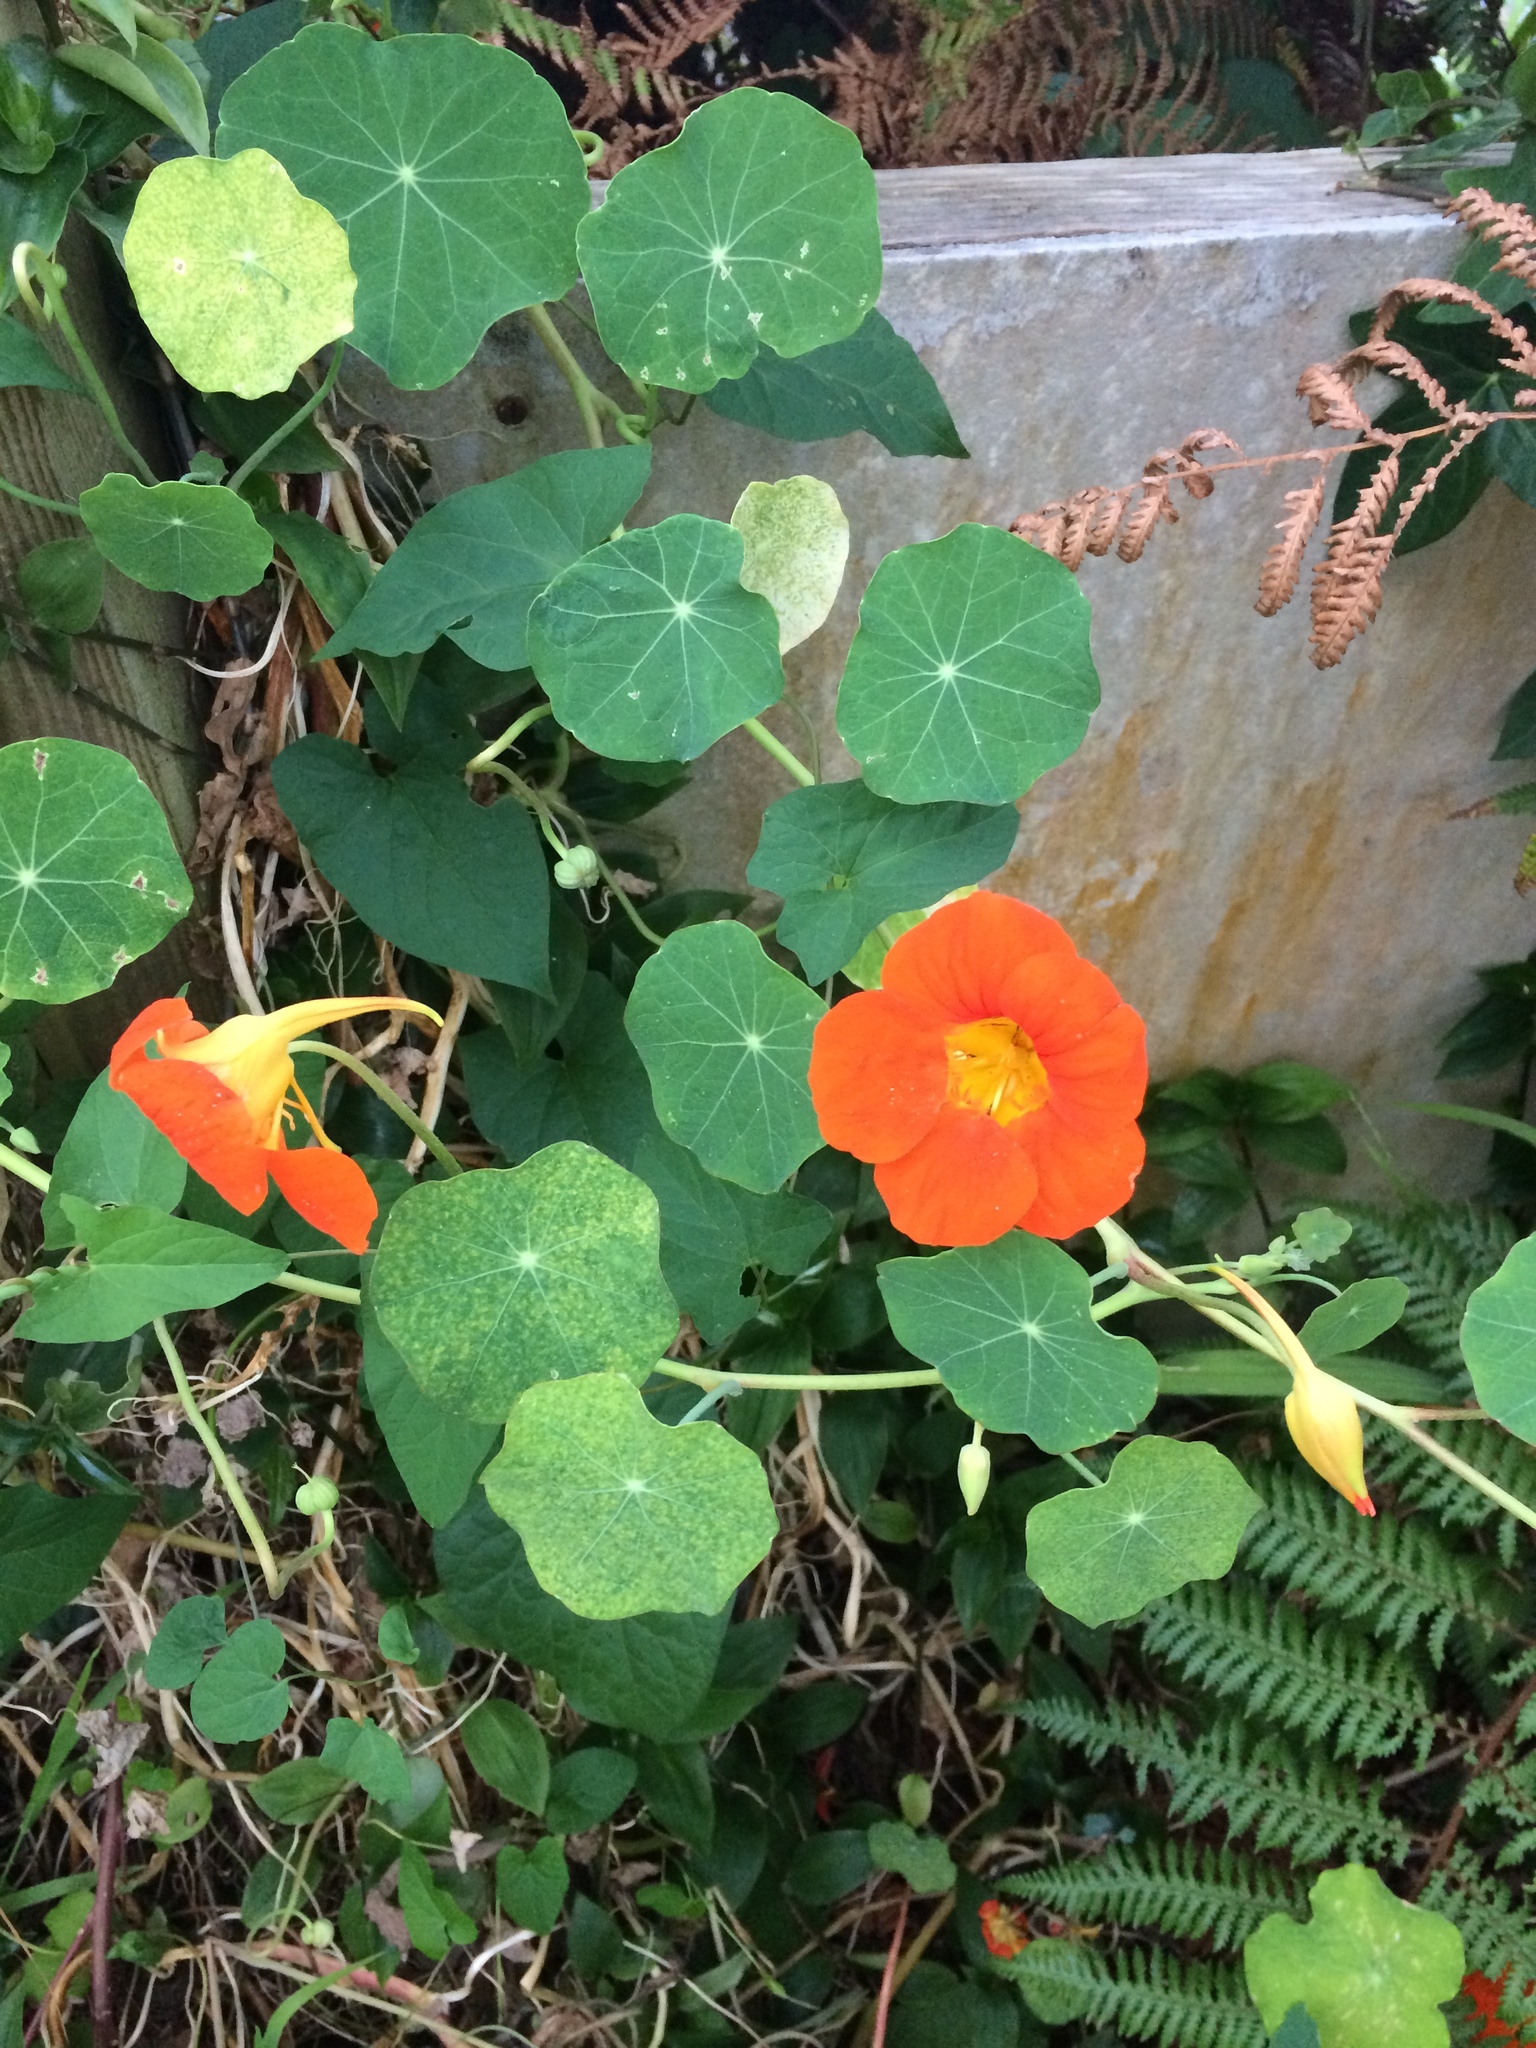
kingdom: Plantae
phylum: Tracheophyta
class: Magnoliopsida
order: Brassicales
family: Tropaeolaceae
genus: Tropaeolum
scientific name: Tropaeolum majus
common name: Nasturtium
